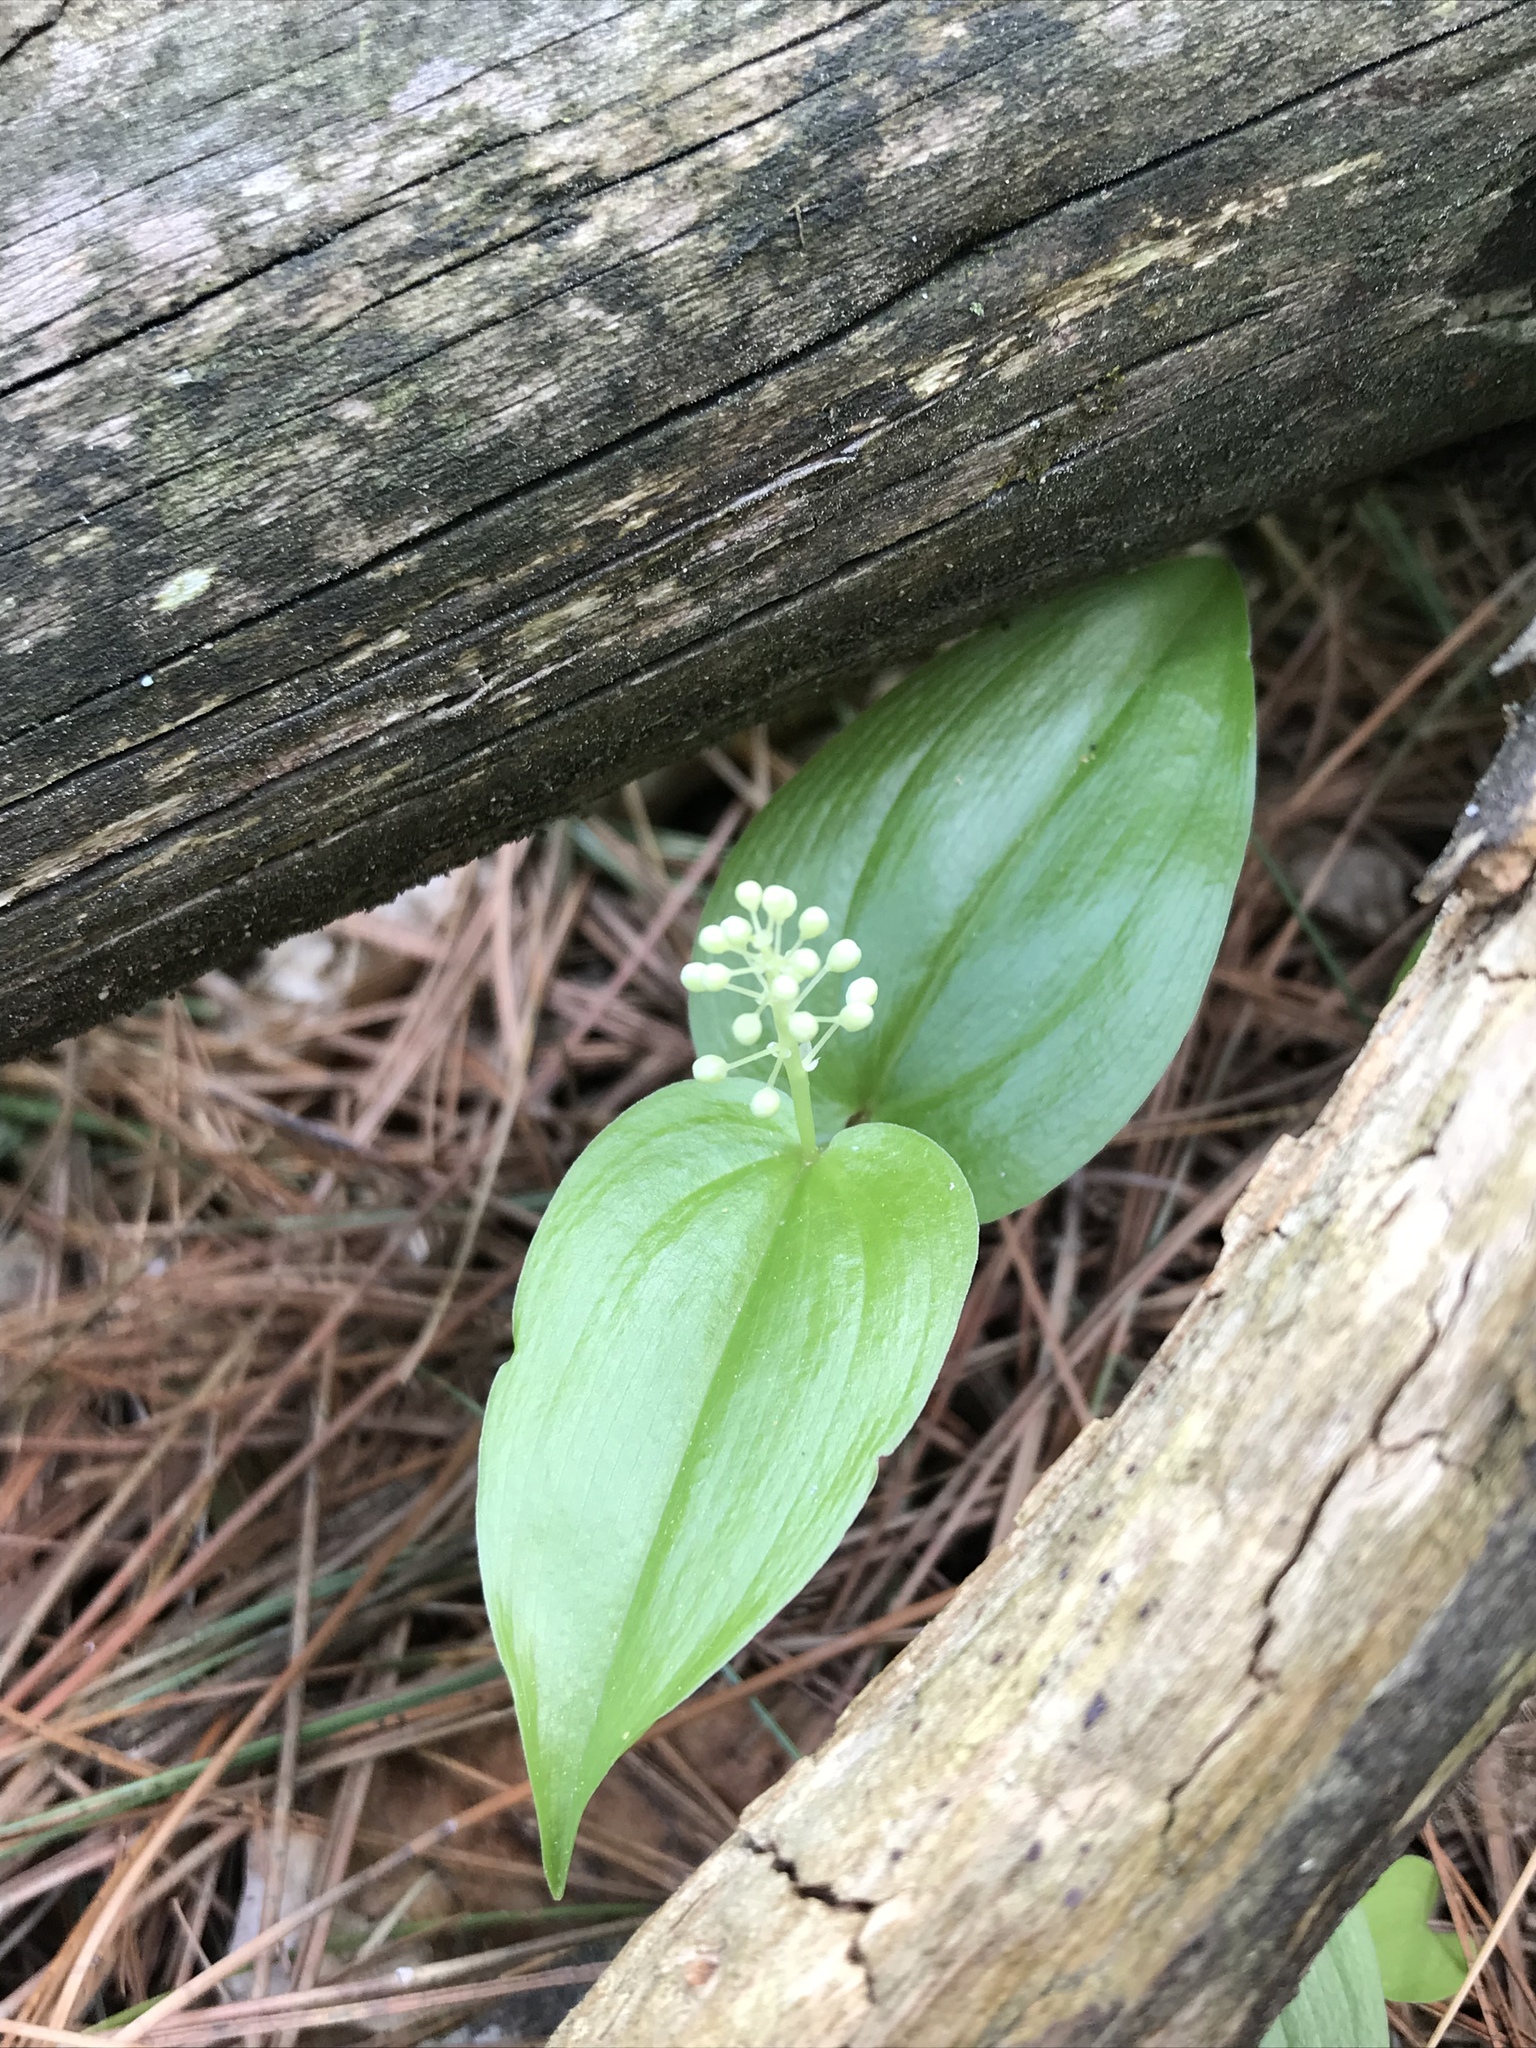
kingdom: Plantae
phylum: Tracheophyta
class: Liliopsida
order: Asparagales
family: Asparagaceae
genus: Maianthemum
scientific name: Maianthemum canadense
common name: False lily-of-the-valley
